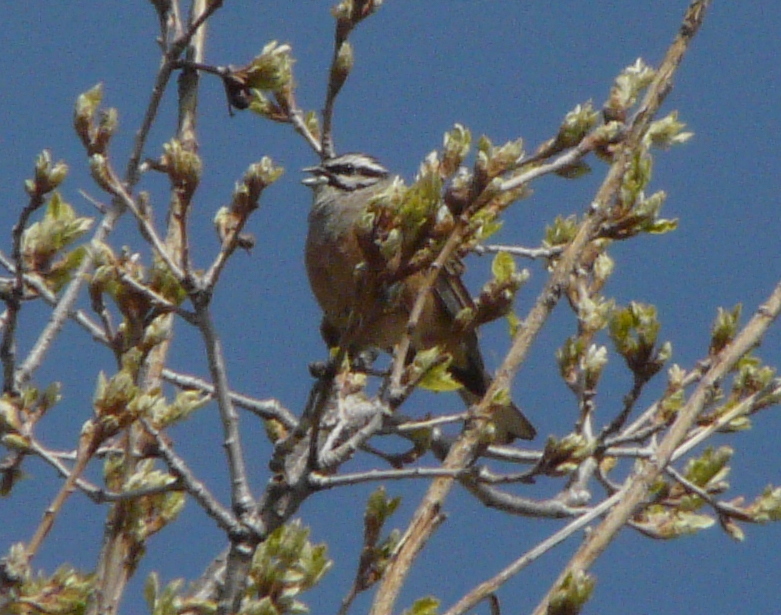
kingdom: Animalia
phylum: Chordata
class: Aves
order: Passeriformes
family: Emberizidae
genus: Emberiza
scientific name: Emberiza cia
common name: Rock bunting
